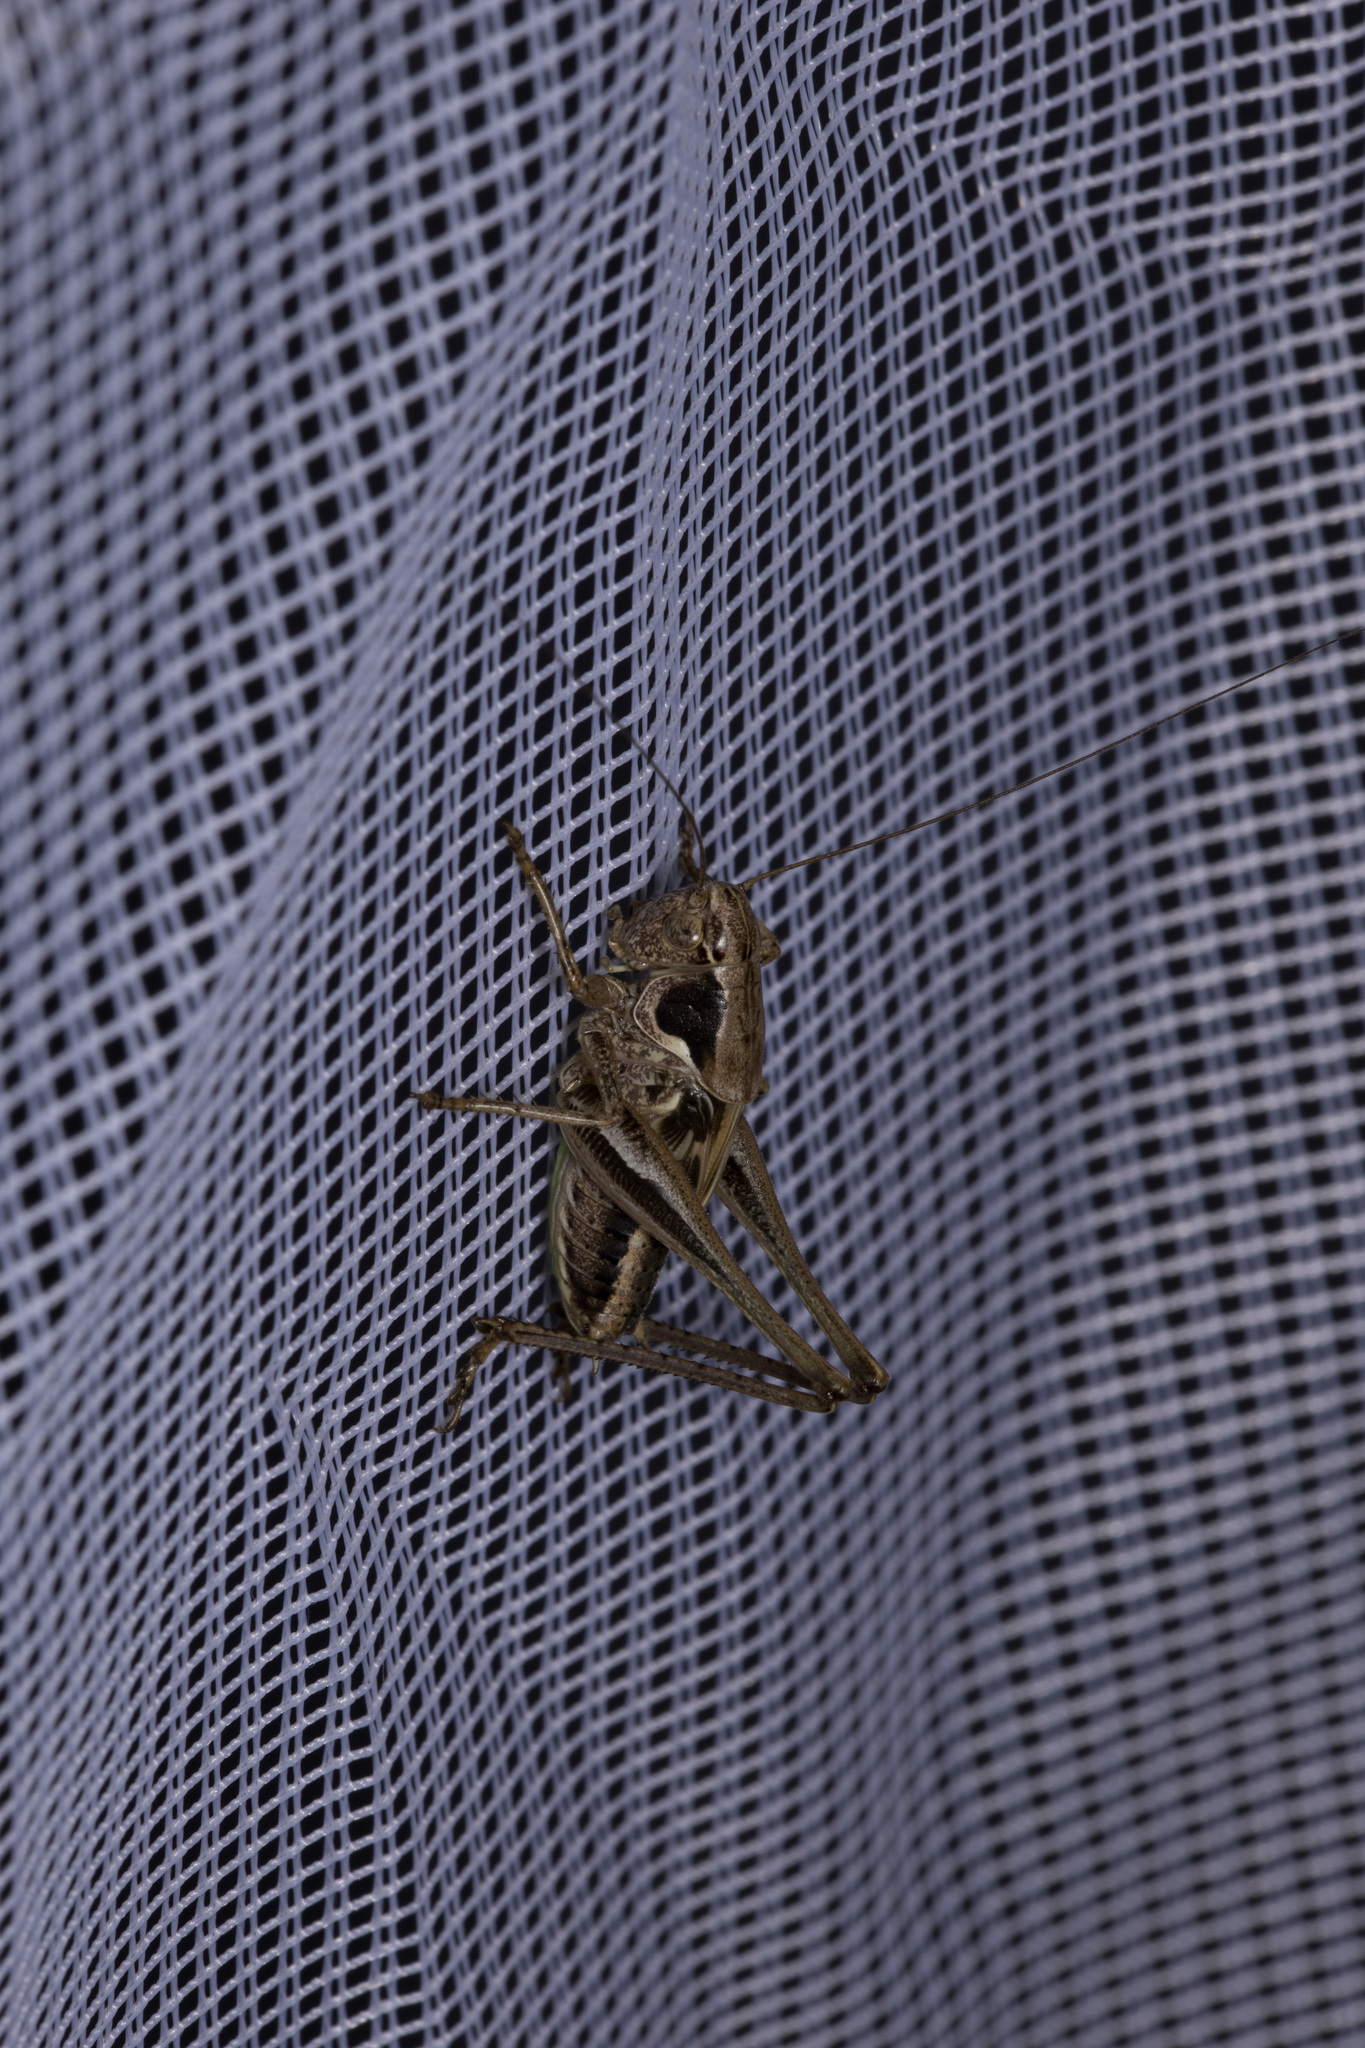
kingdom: Animalia
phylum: Arthropoda
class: Insecta
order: Orthoptera
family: Tettigoniidae
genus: Platycleis
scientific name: Platycleis albopunctata
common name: Grey bush-cricket
